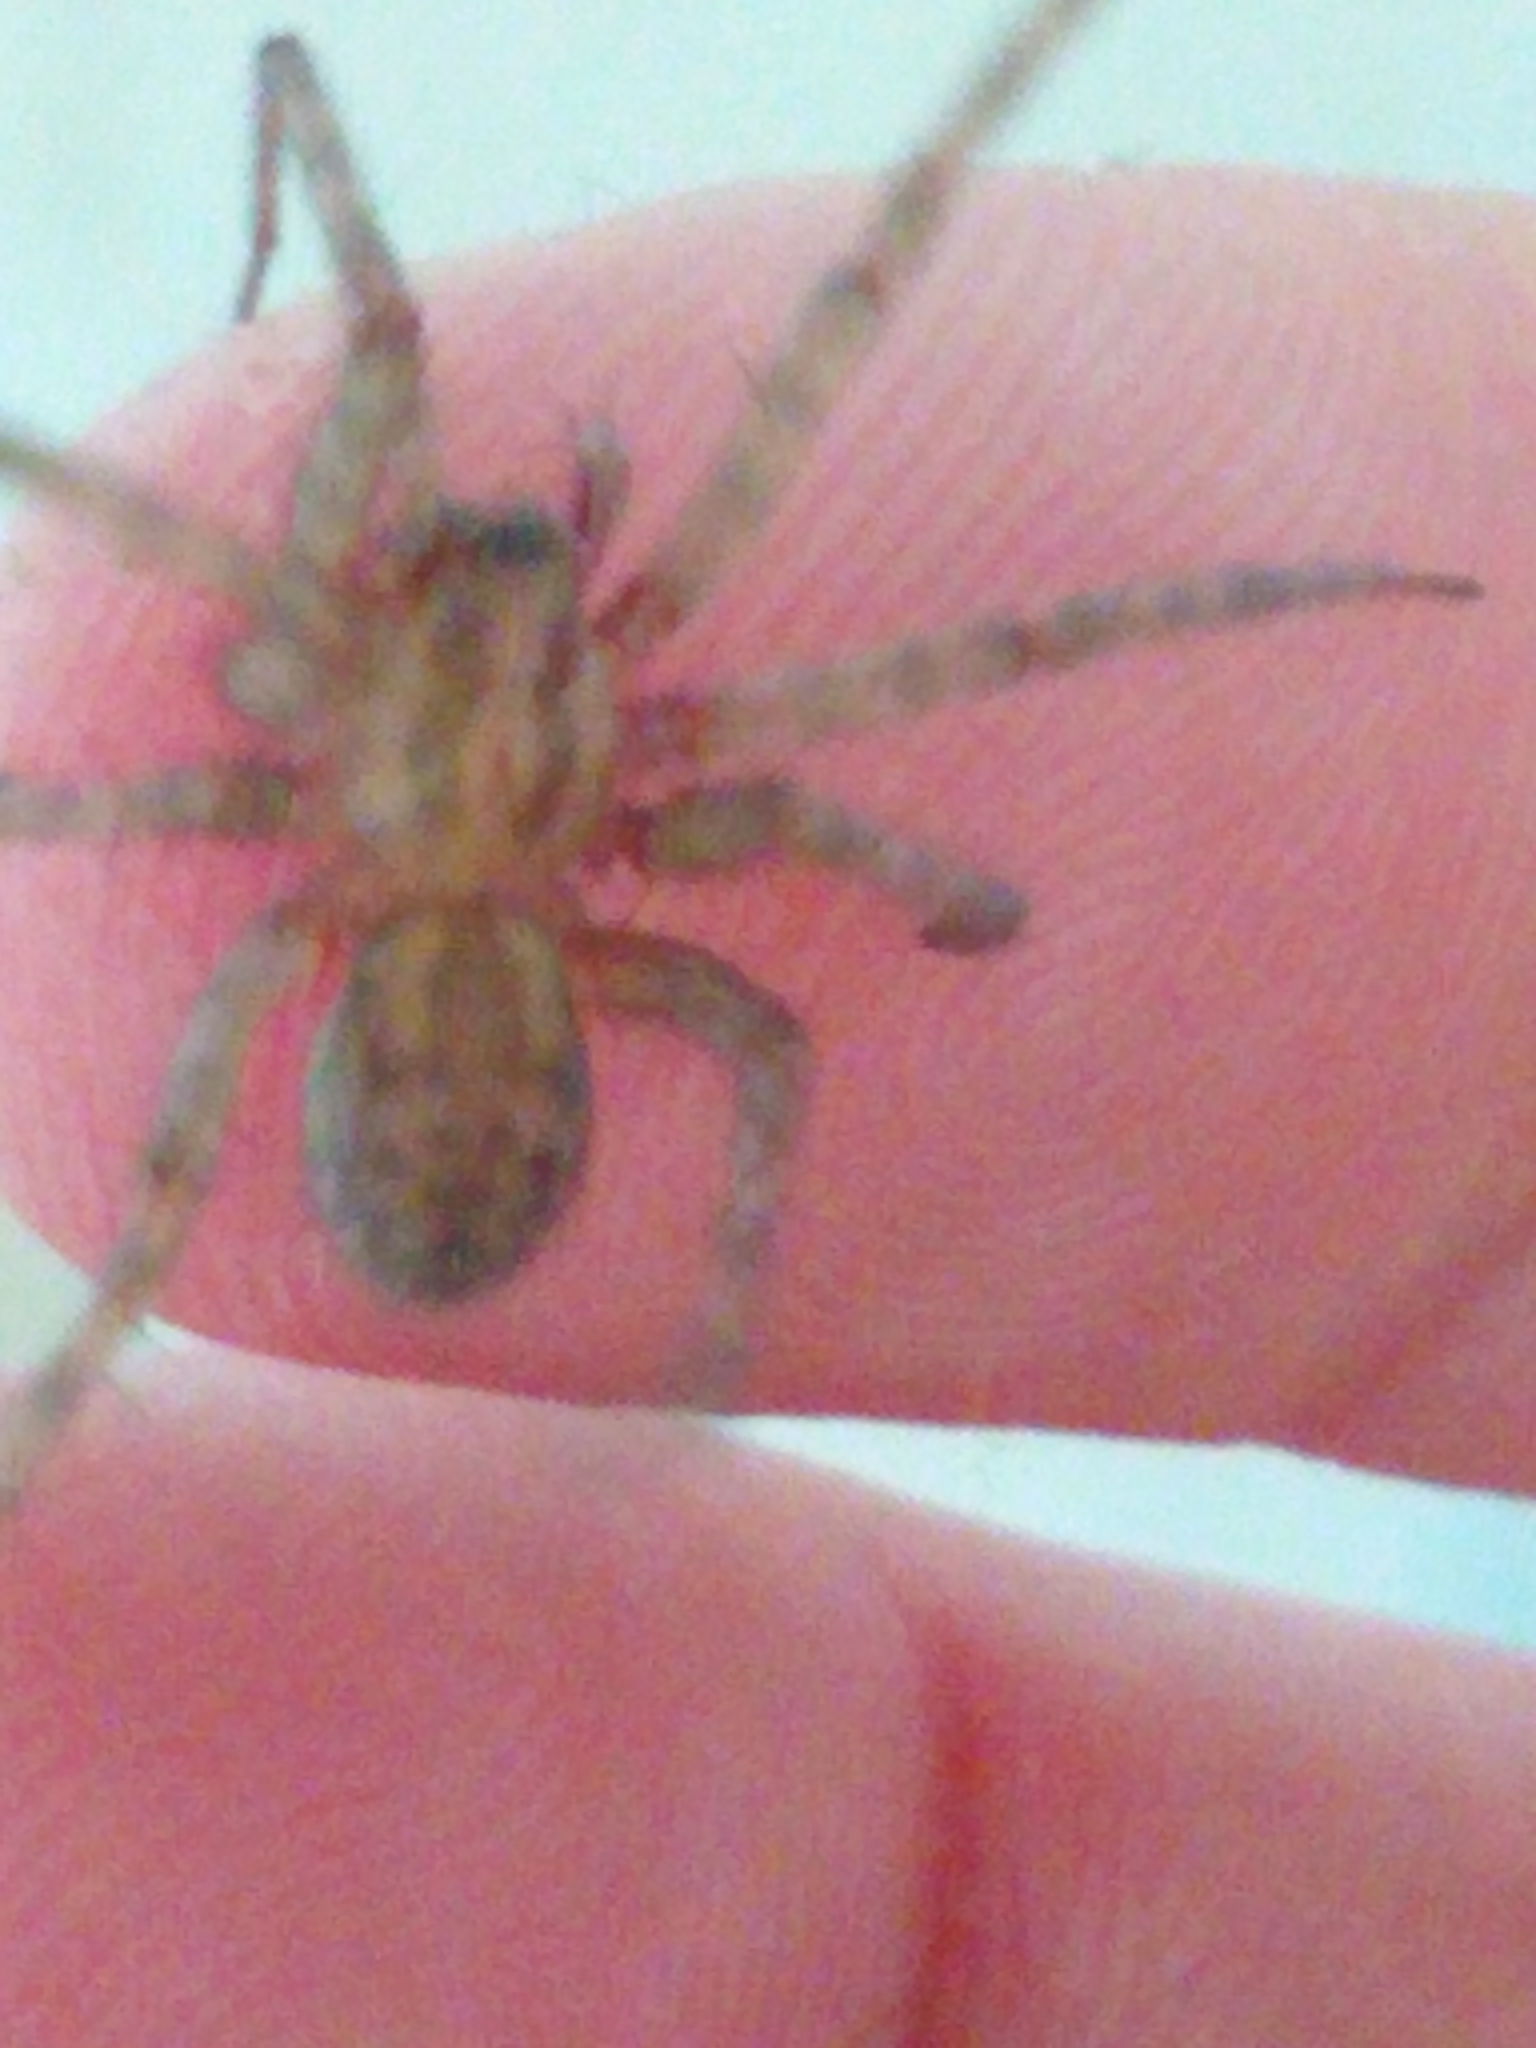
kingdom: Animalia
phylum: Arthropoda
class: Arachnida
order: Araneae
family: Agelenidae
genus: Tegenaria
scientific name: Tegenaria domestica
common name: Barn funnel weaver
